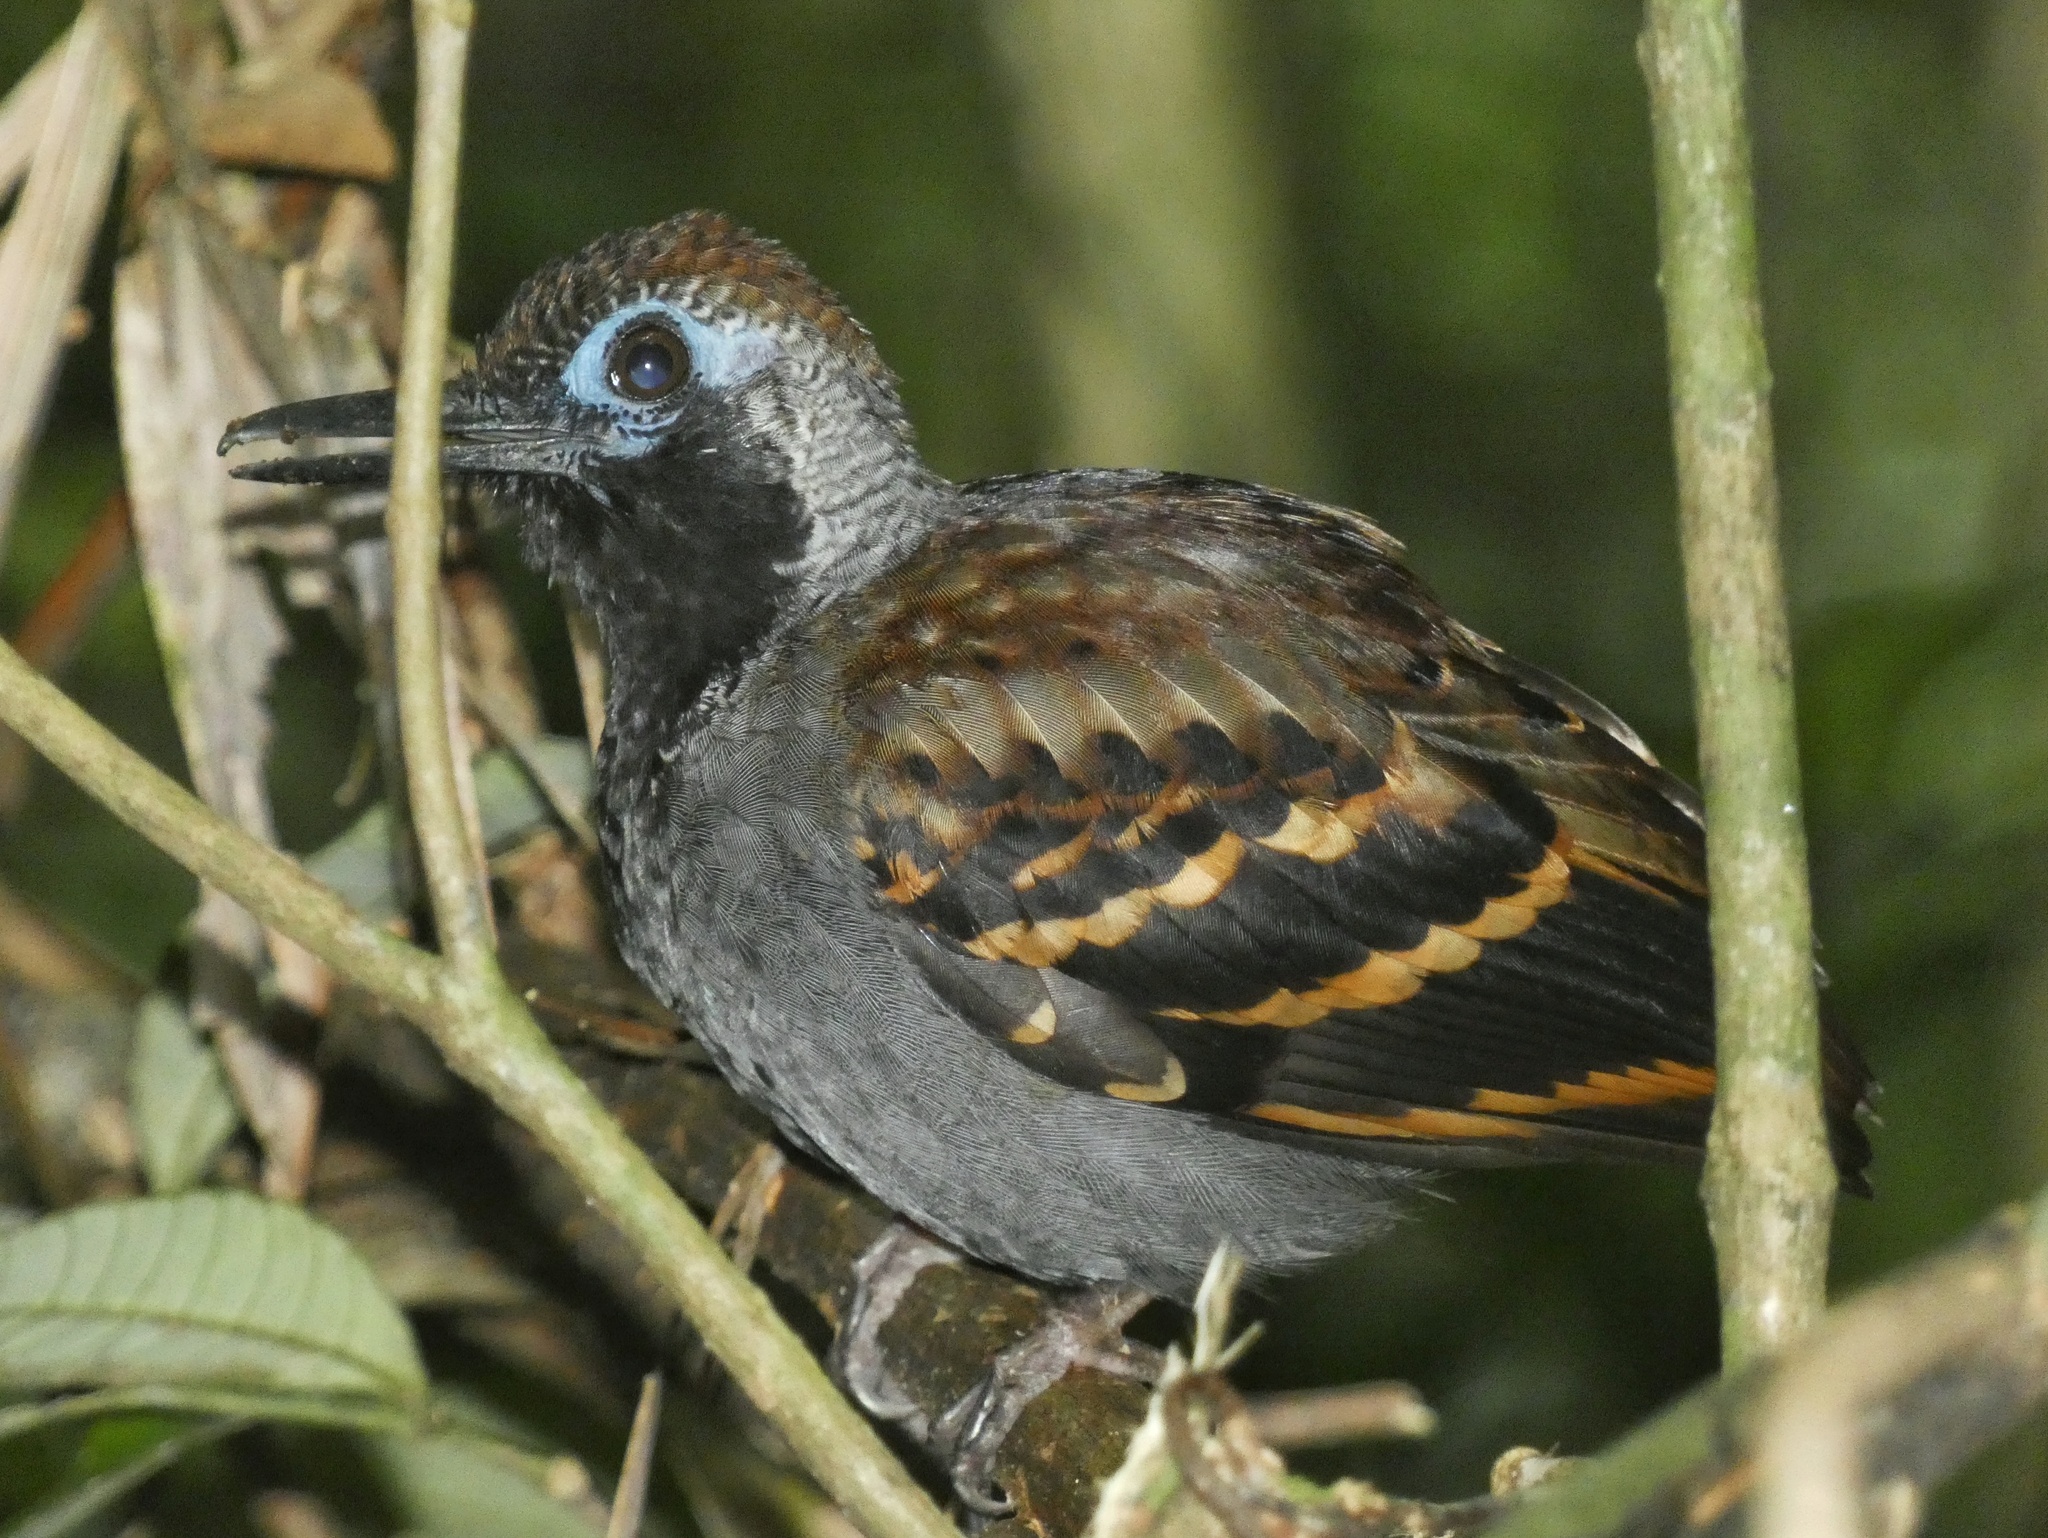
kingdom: Animalia
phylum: Chordata
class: Aves
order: Passeriformes
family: Thamnophilidae
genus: Myrmornis
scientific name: Myrmornis torquata
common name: Wing-banded antbird
